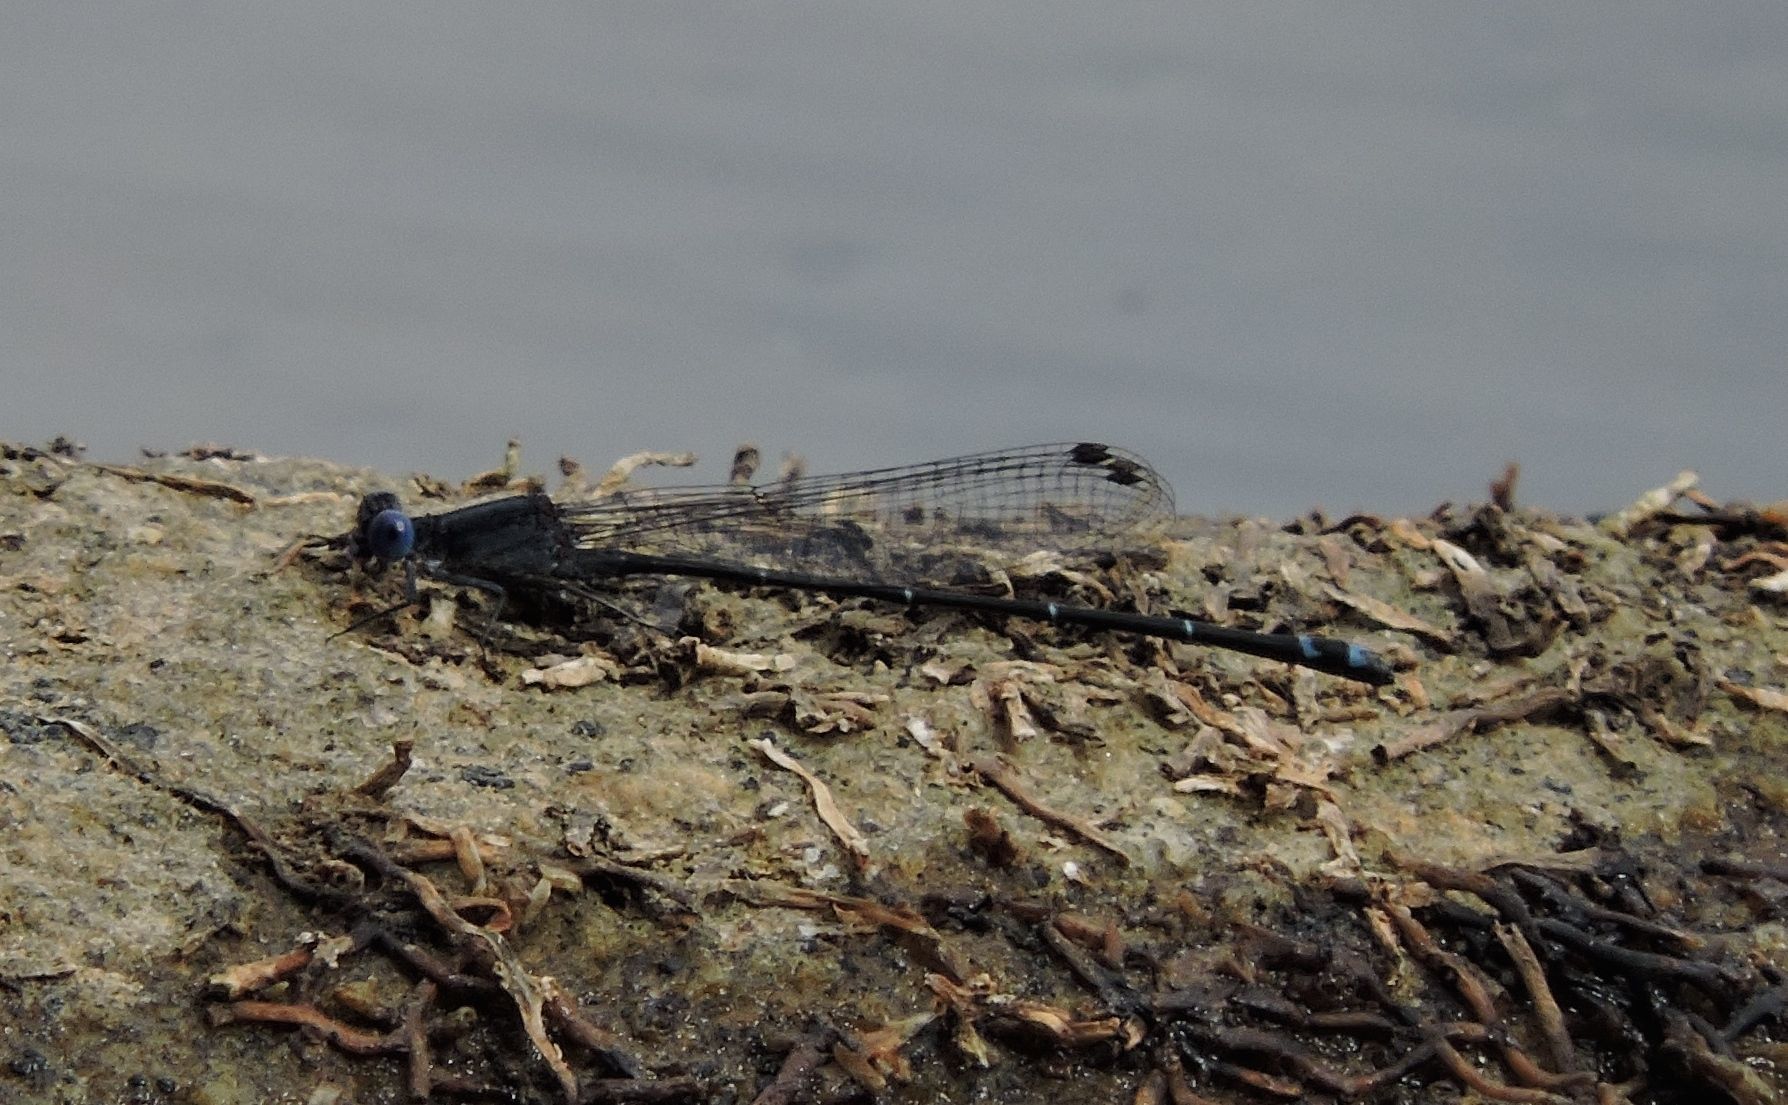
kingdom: Animalia
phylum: Arthropoda
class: Insecta
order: Odonata
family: Coenagrionidae
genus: Argia
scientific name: Argia translata
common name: Dusky dancer
